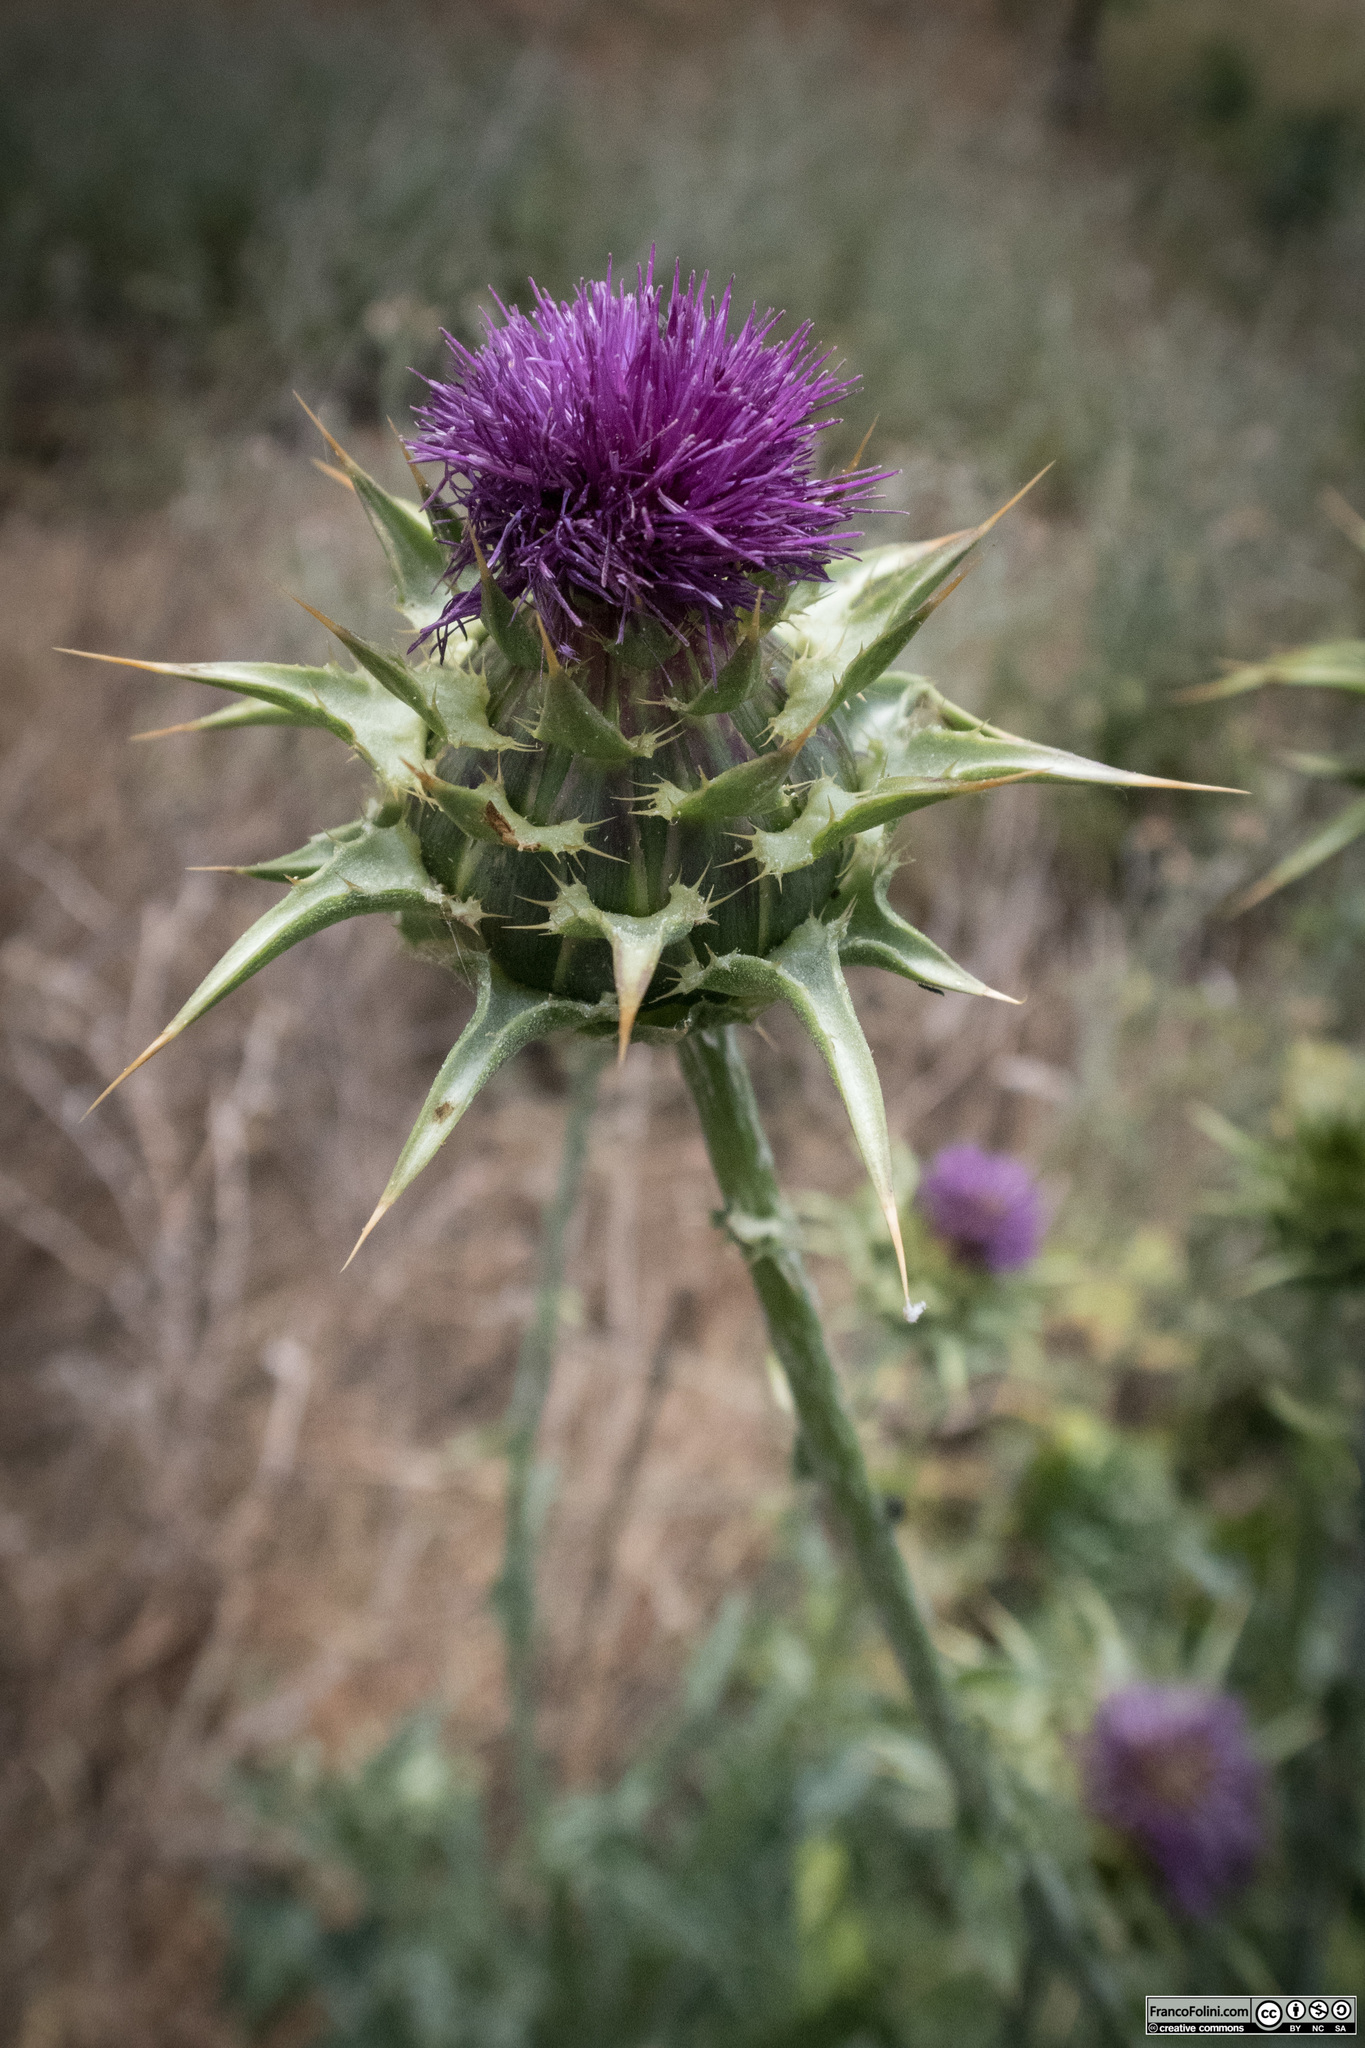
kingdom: Plantae
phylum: Tracheophyta
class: Magnoliopsida
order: Asterales
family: Asteraceae
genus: Silybum
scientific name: Silybum marianum
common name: Milk thistle
